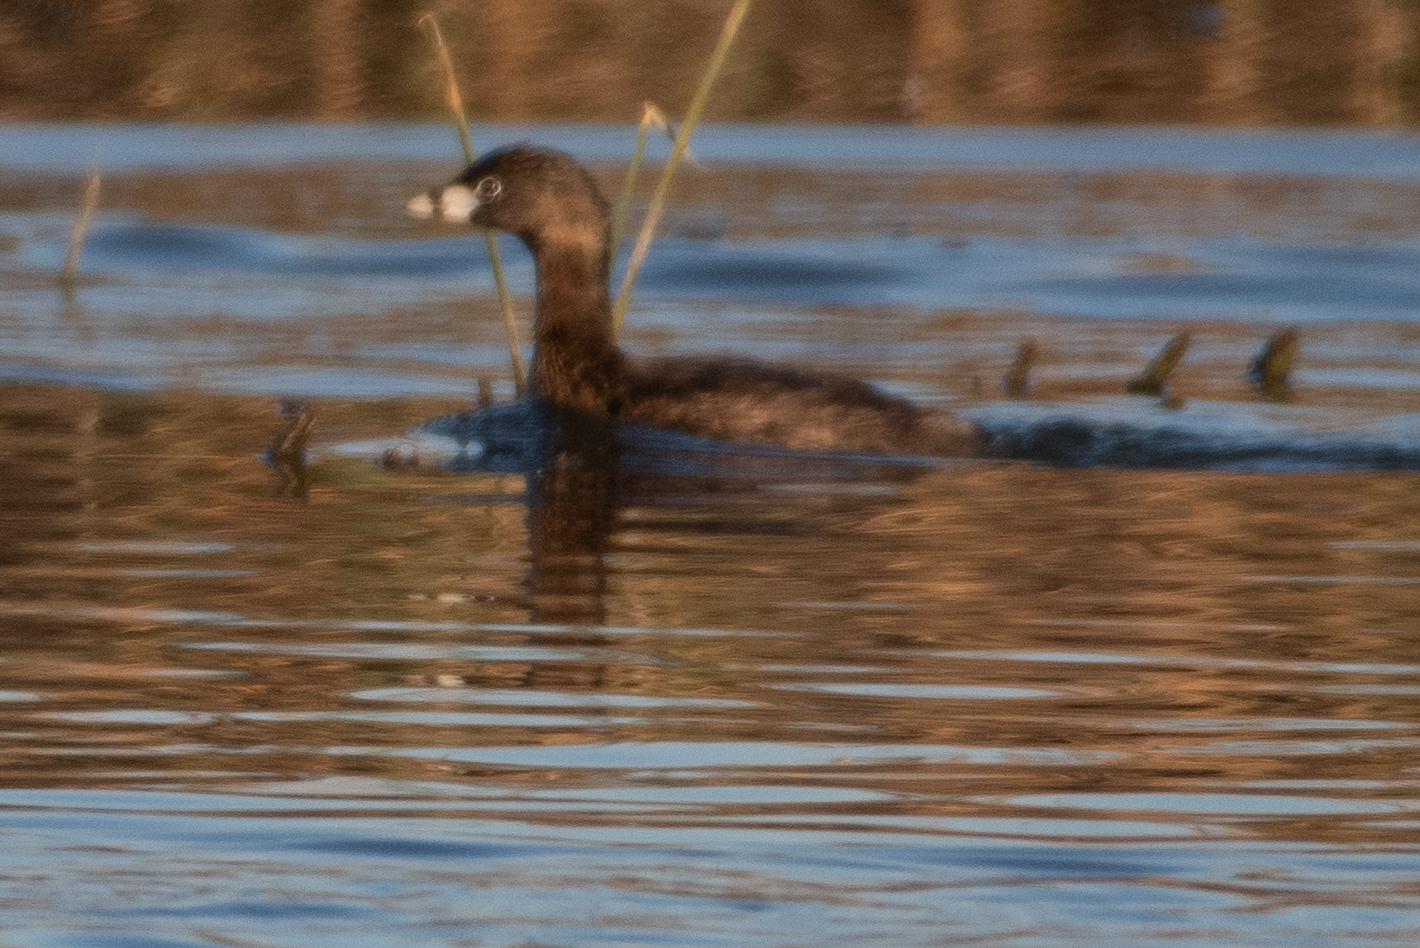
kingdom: Animalia
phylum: Chordata
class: Aves
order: Podicipediformes
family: Podicipedidae
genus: Podilymbus
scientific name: Podilymbus podiceps
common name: Pied-billed grebe
